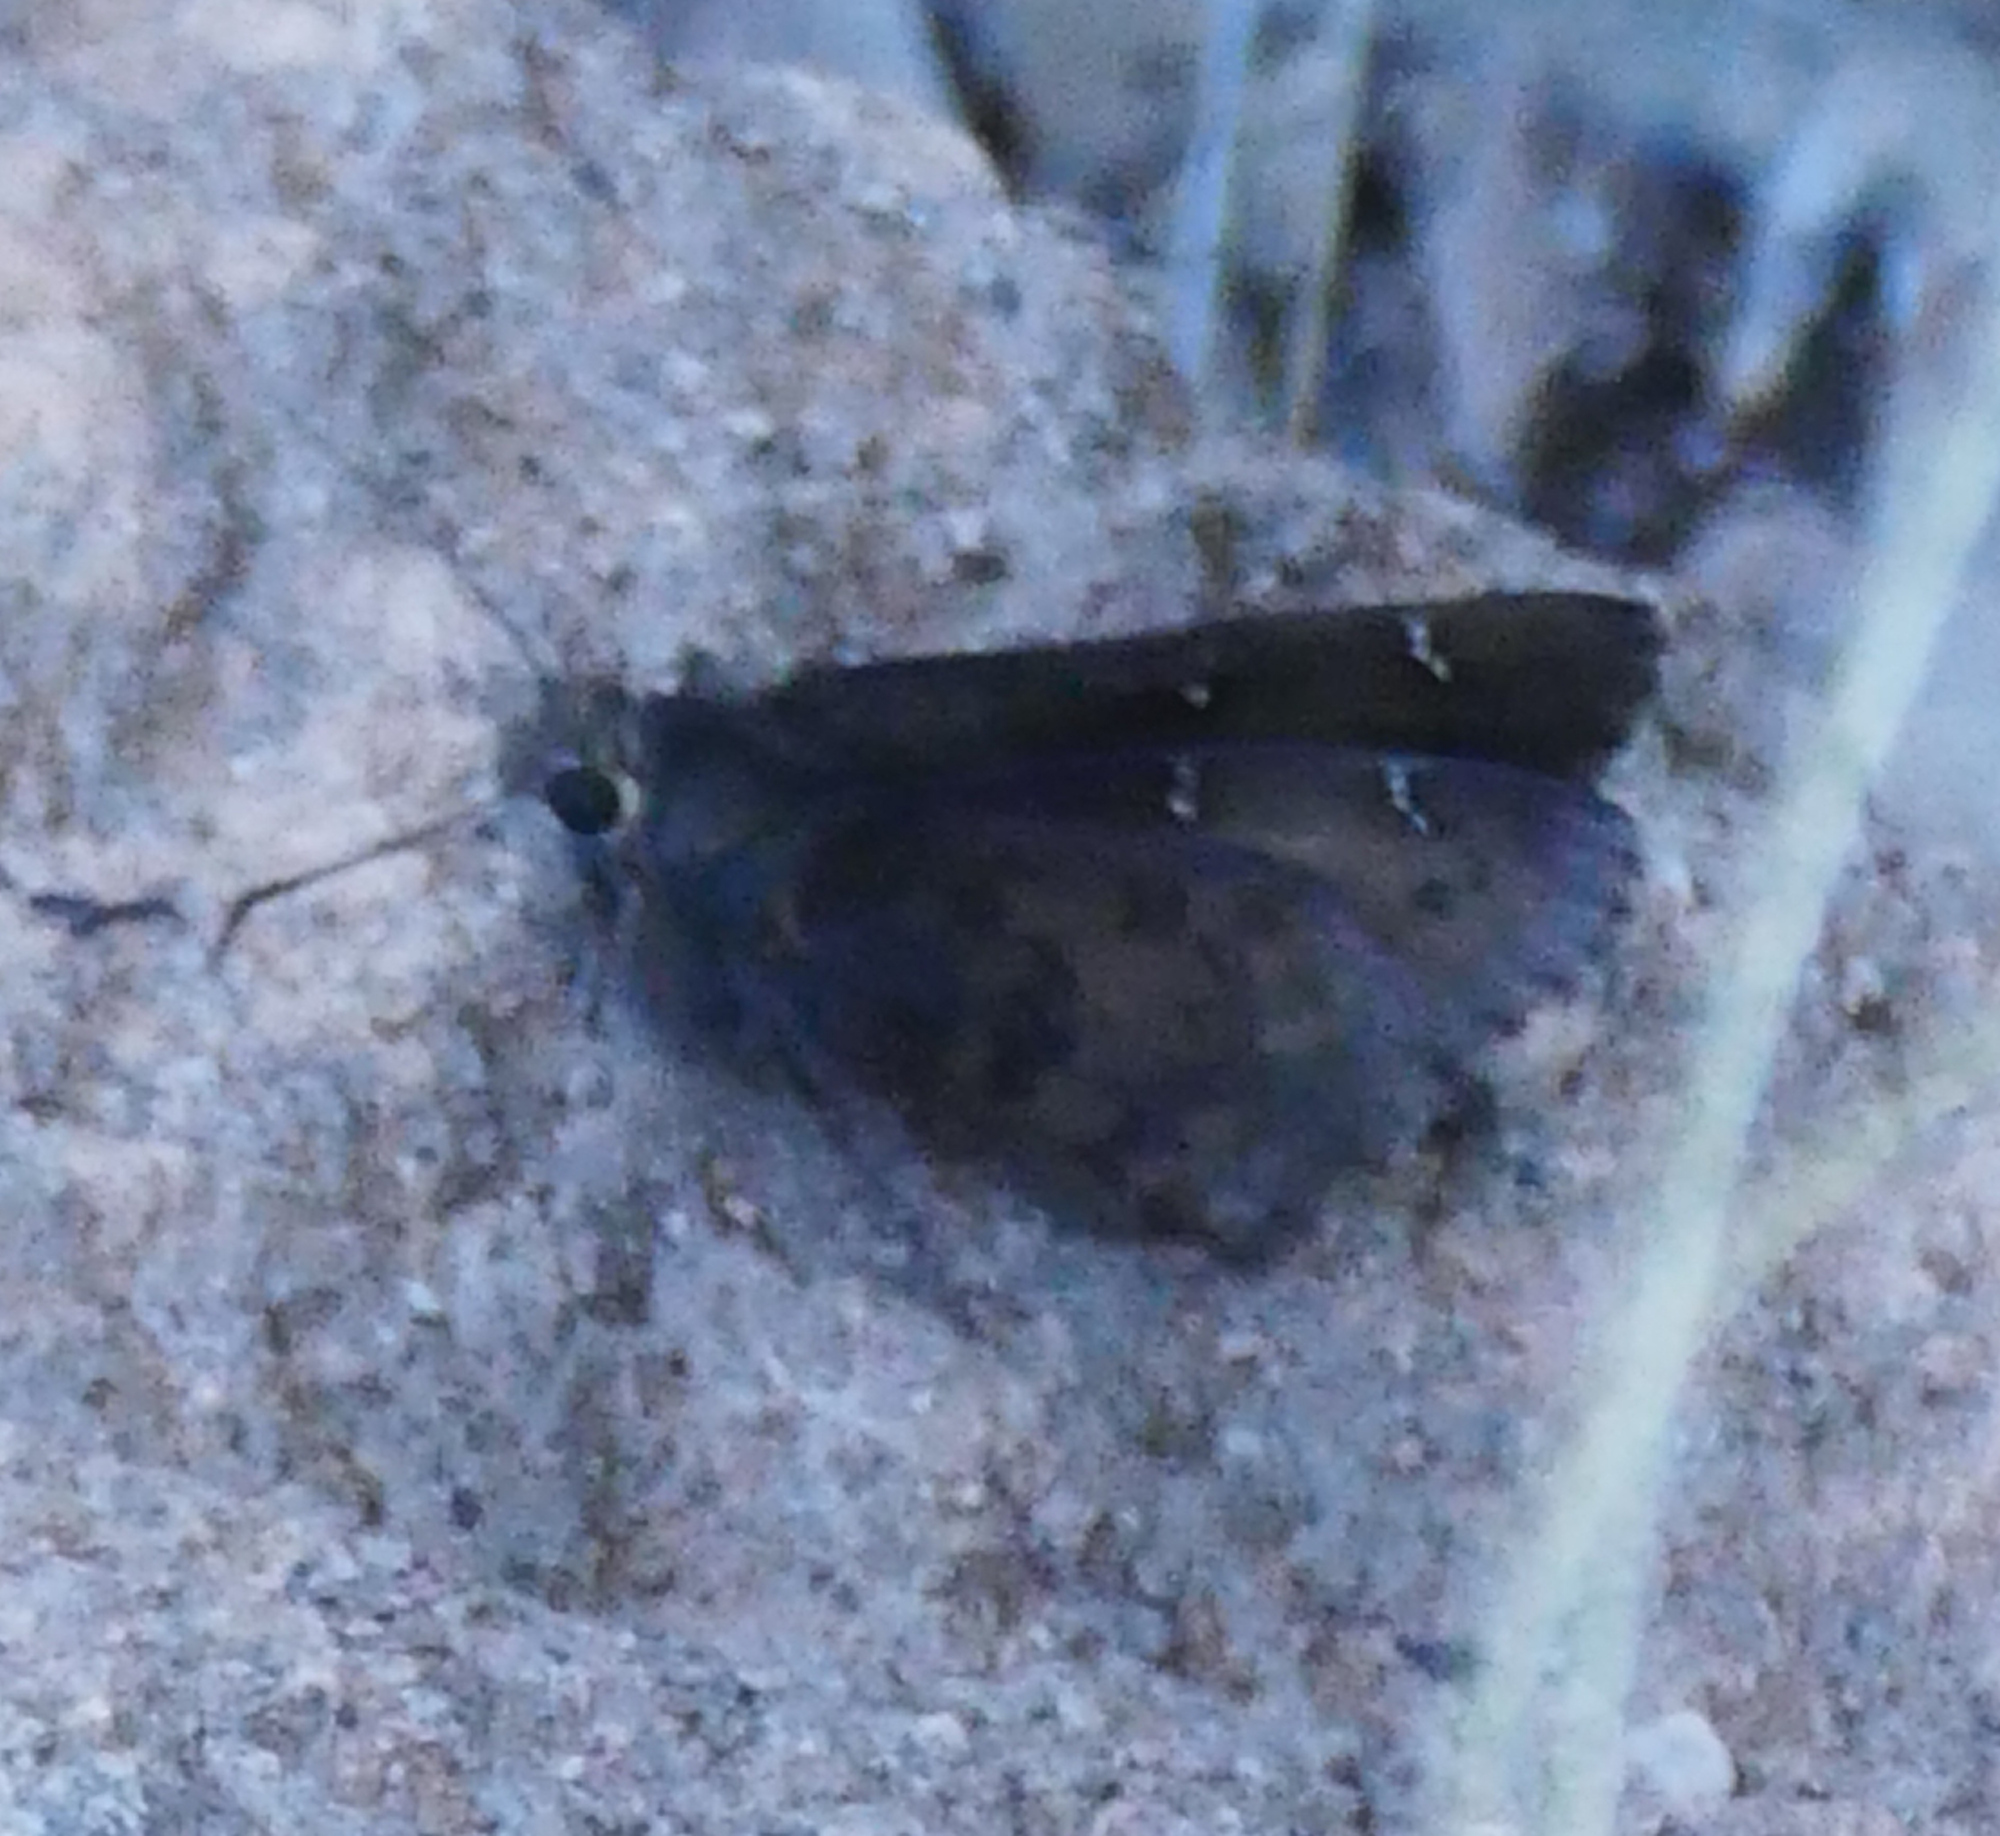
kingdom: Animalia
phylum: Arthropoda
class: Insecta
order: Lepidoptera
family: Hesperiidae
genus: Thorybes
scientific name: Thorybes pylades
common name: Northern cloudywing
